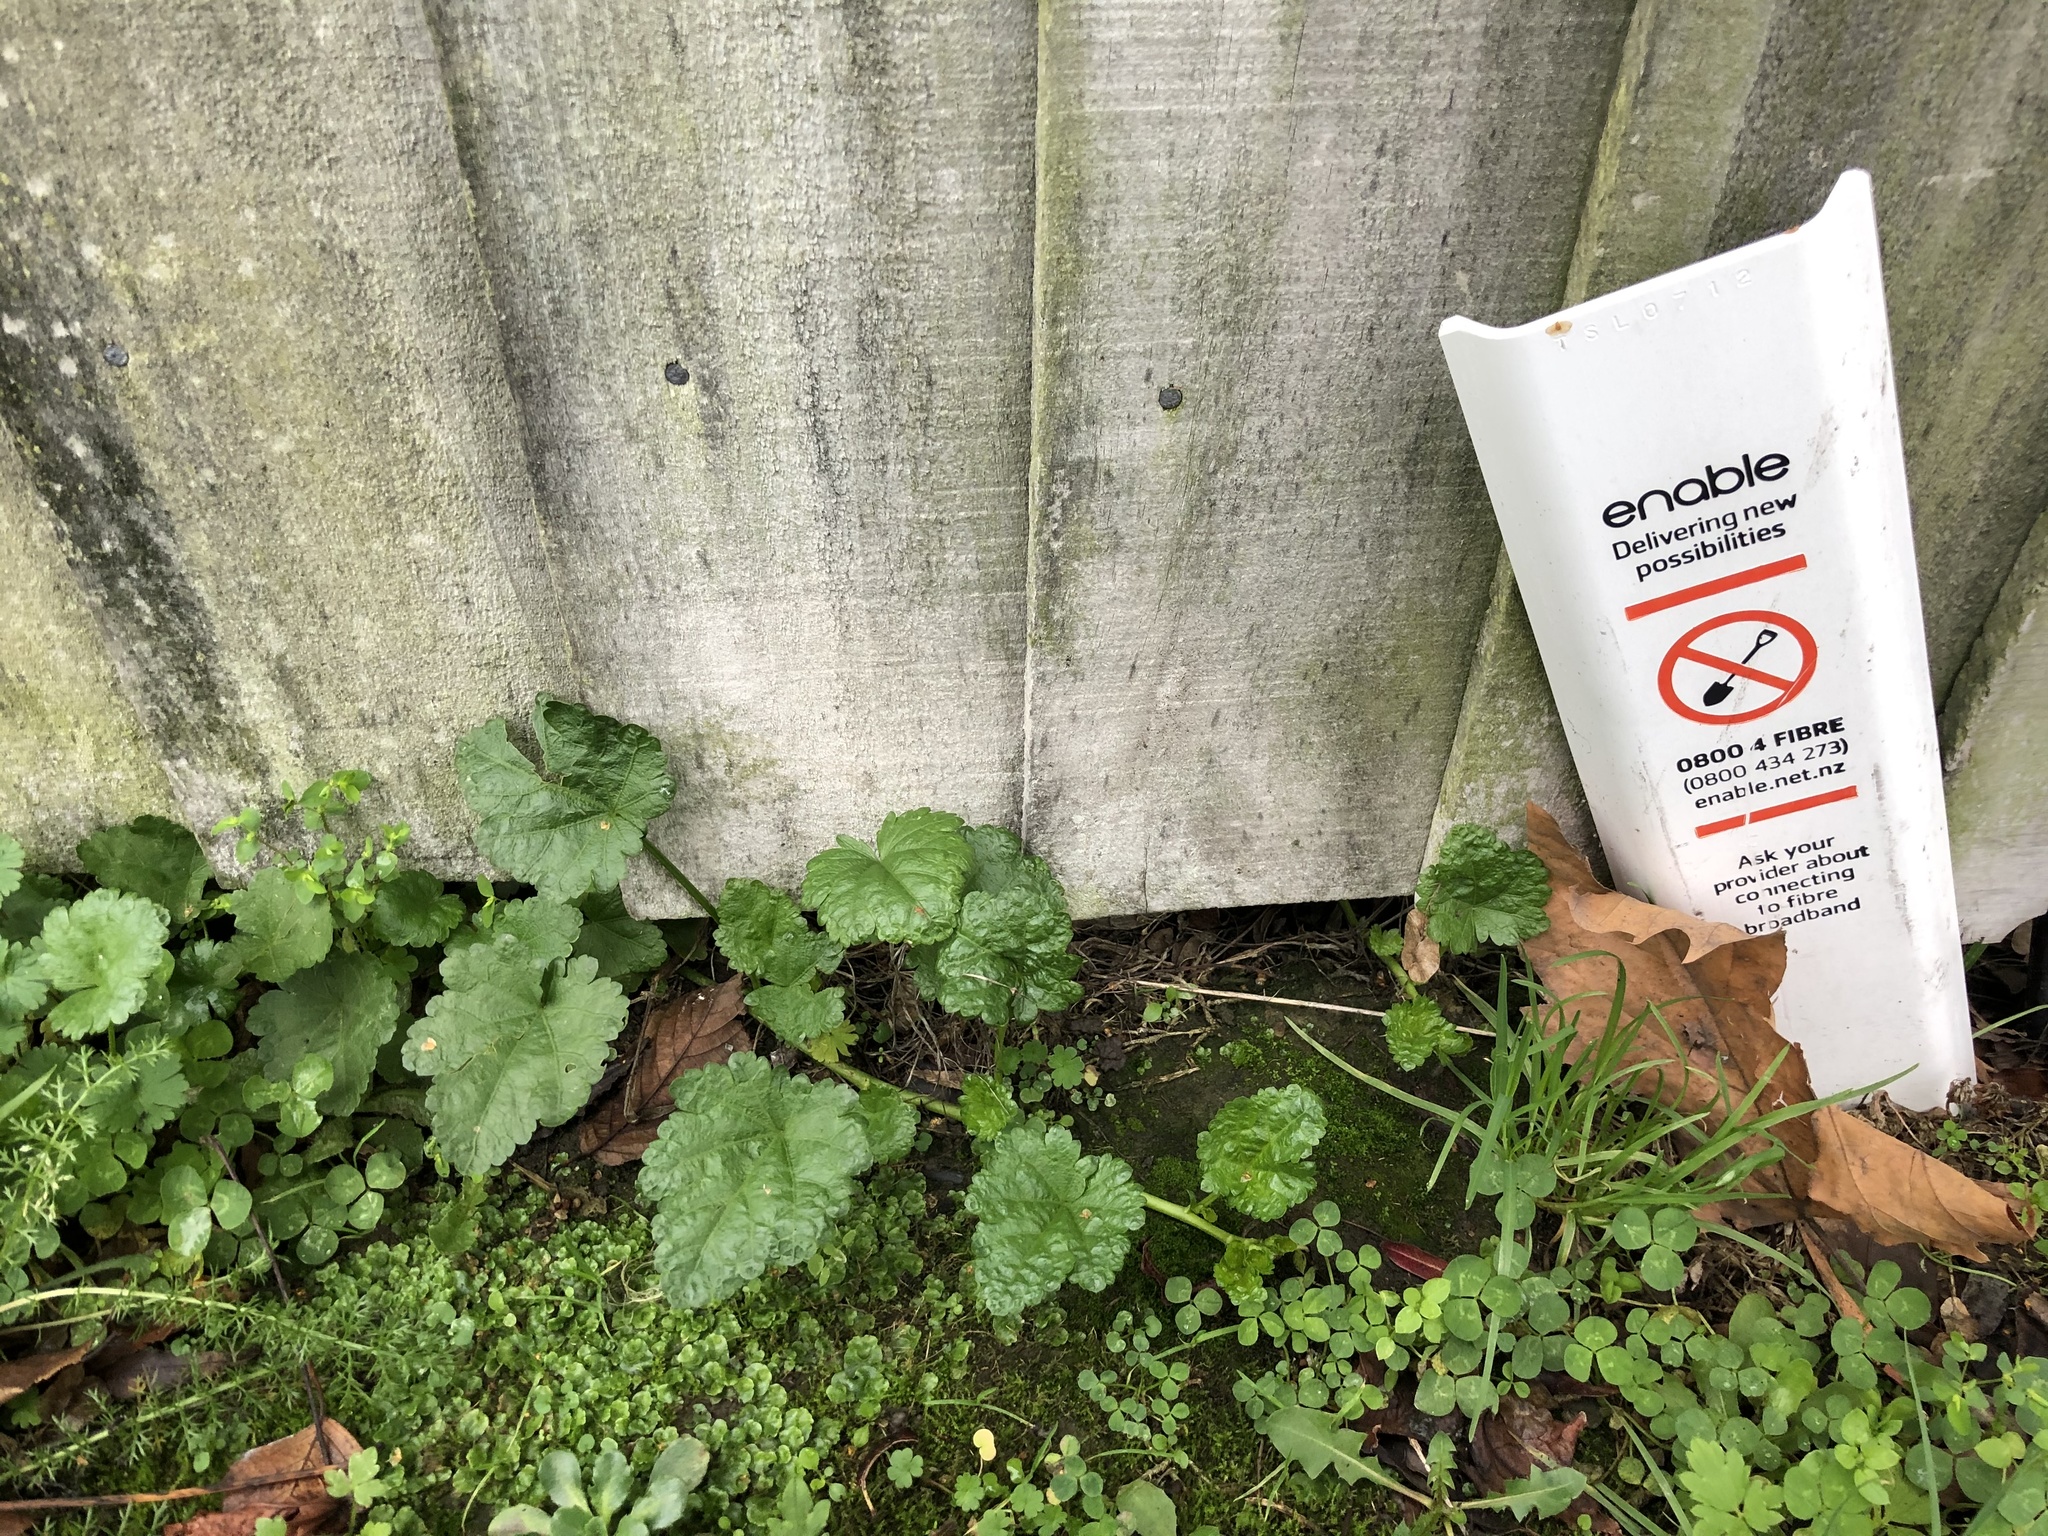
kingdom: Plantae
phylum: Tracheophyta
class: Magnoliopsida
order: Malvales
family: Malvaceae
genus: Modiola
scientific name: Modiola caroliniana
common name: Carolina bristlemallow
